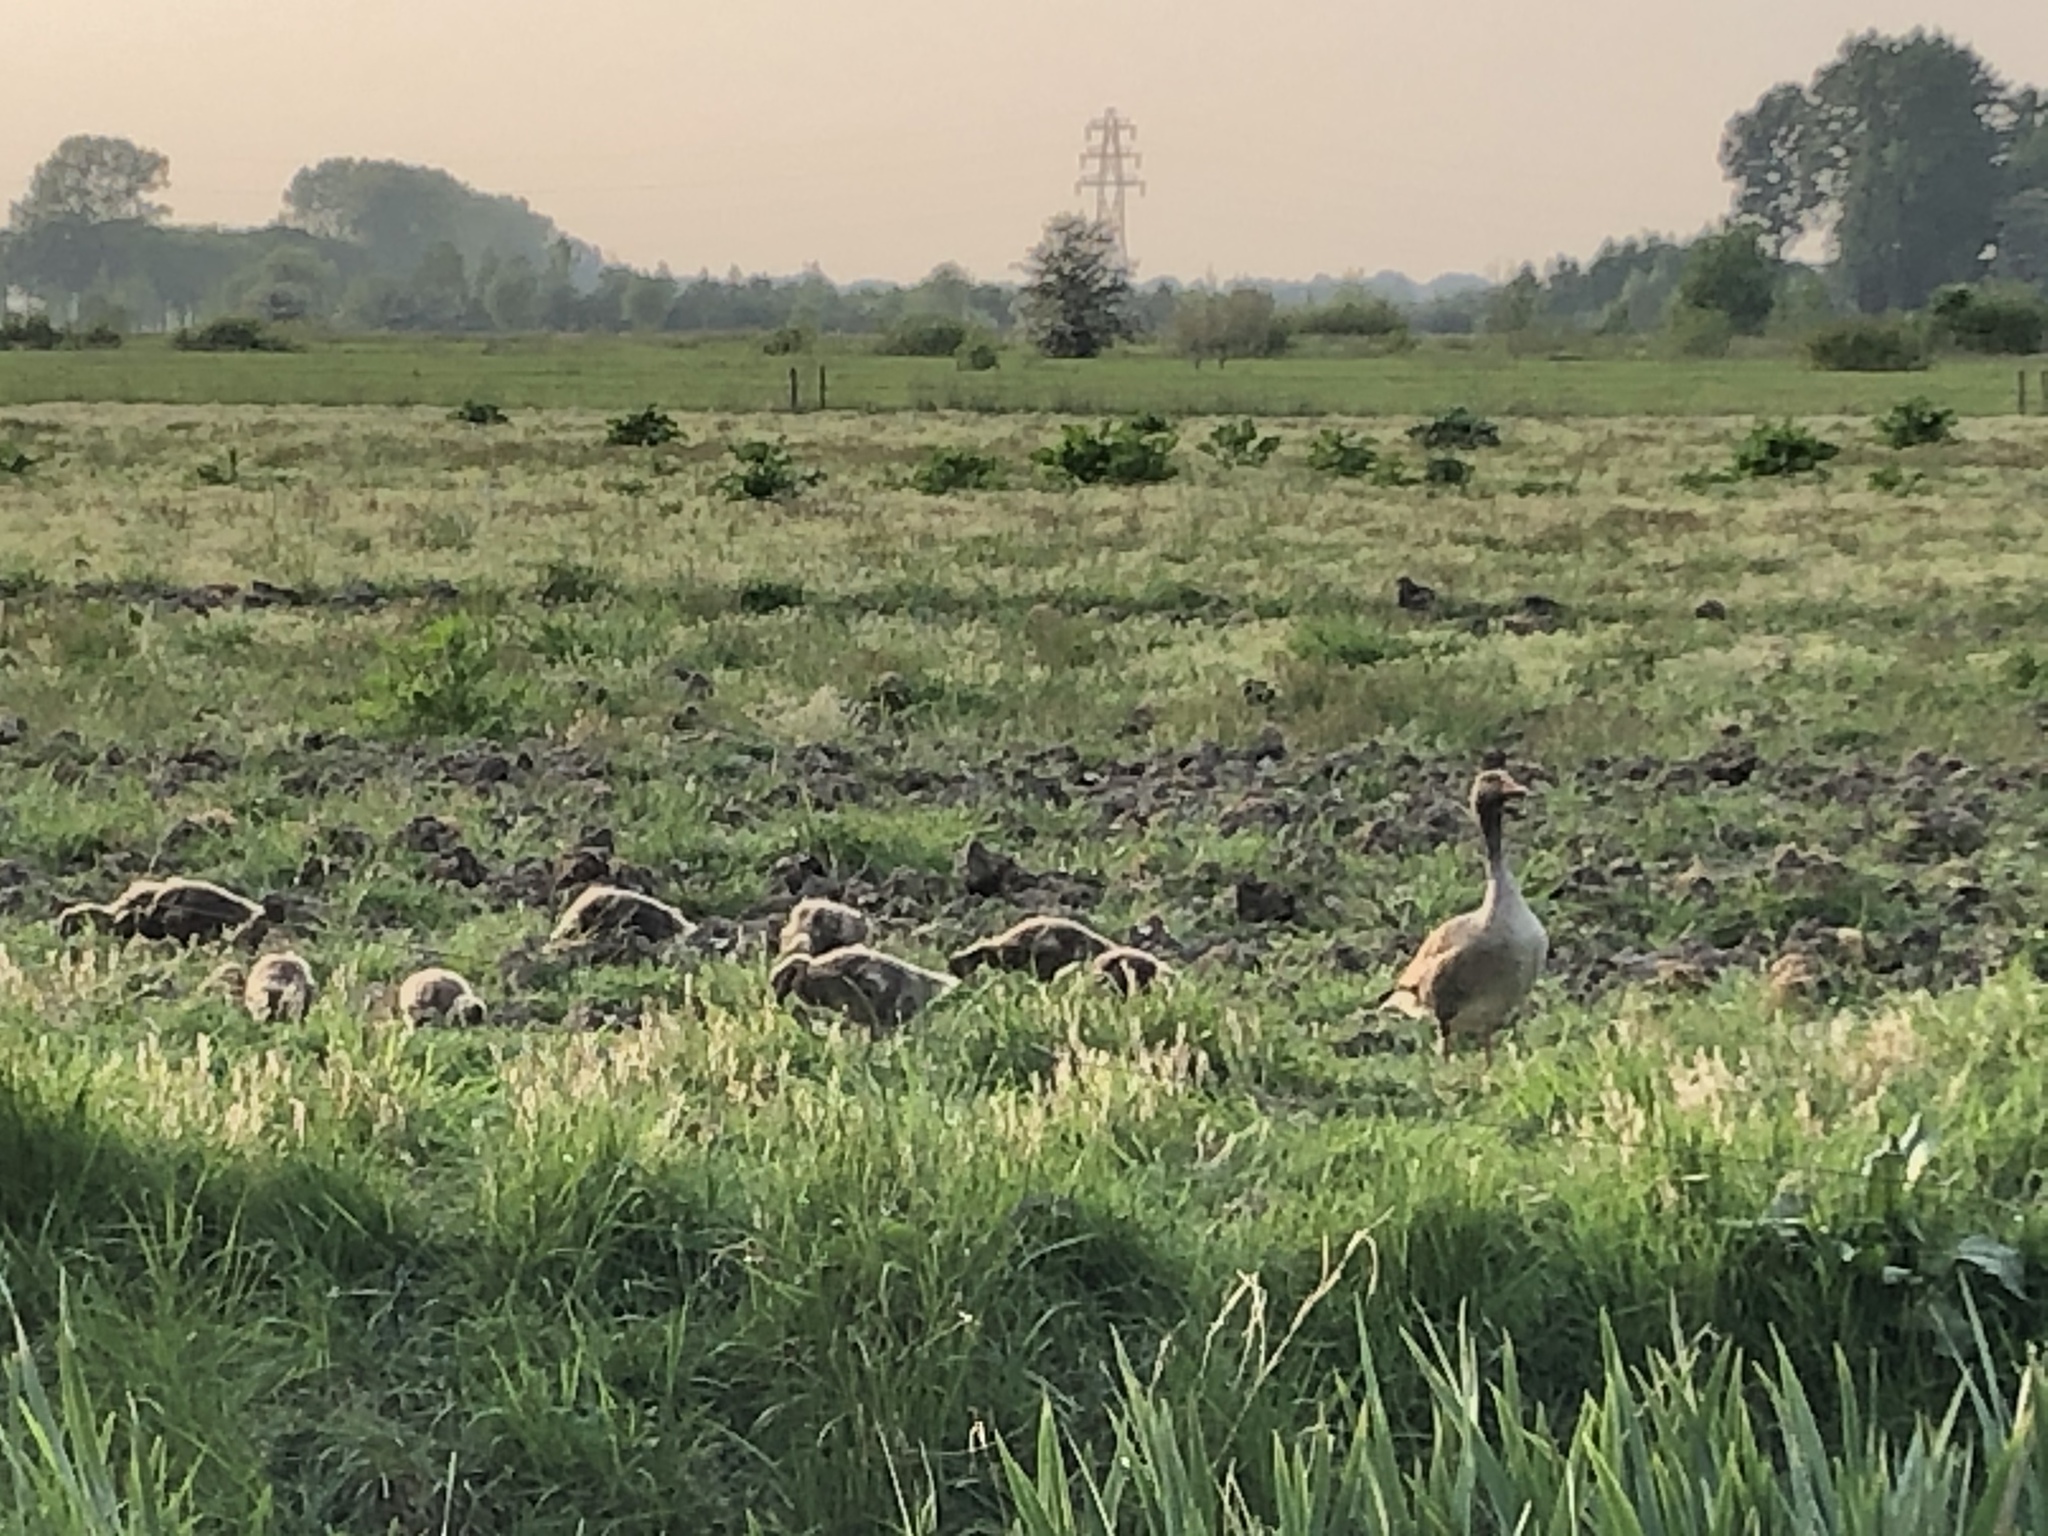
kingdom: Animalia
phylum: Chordata
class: Aves
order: Anseriformes
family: Anatidae
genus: Anser
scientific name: Anser anser
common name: Greylag goose
